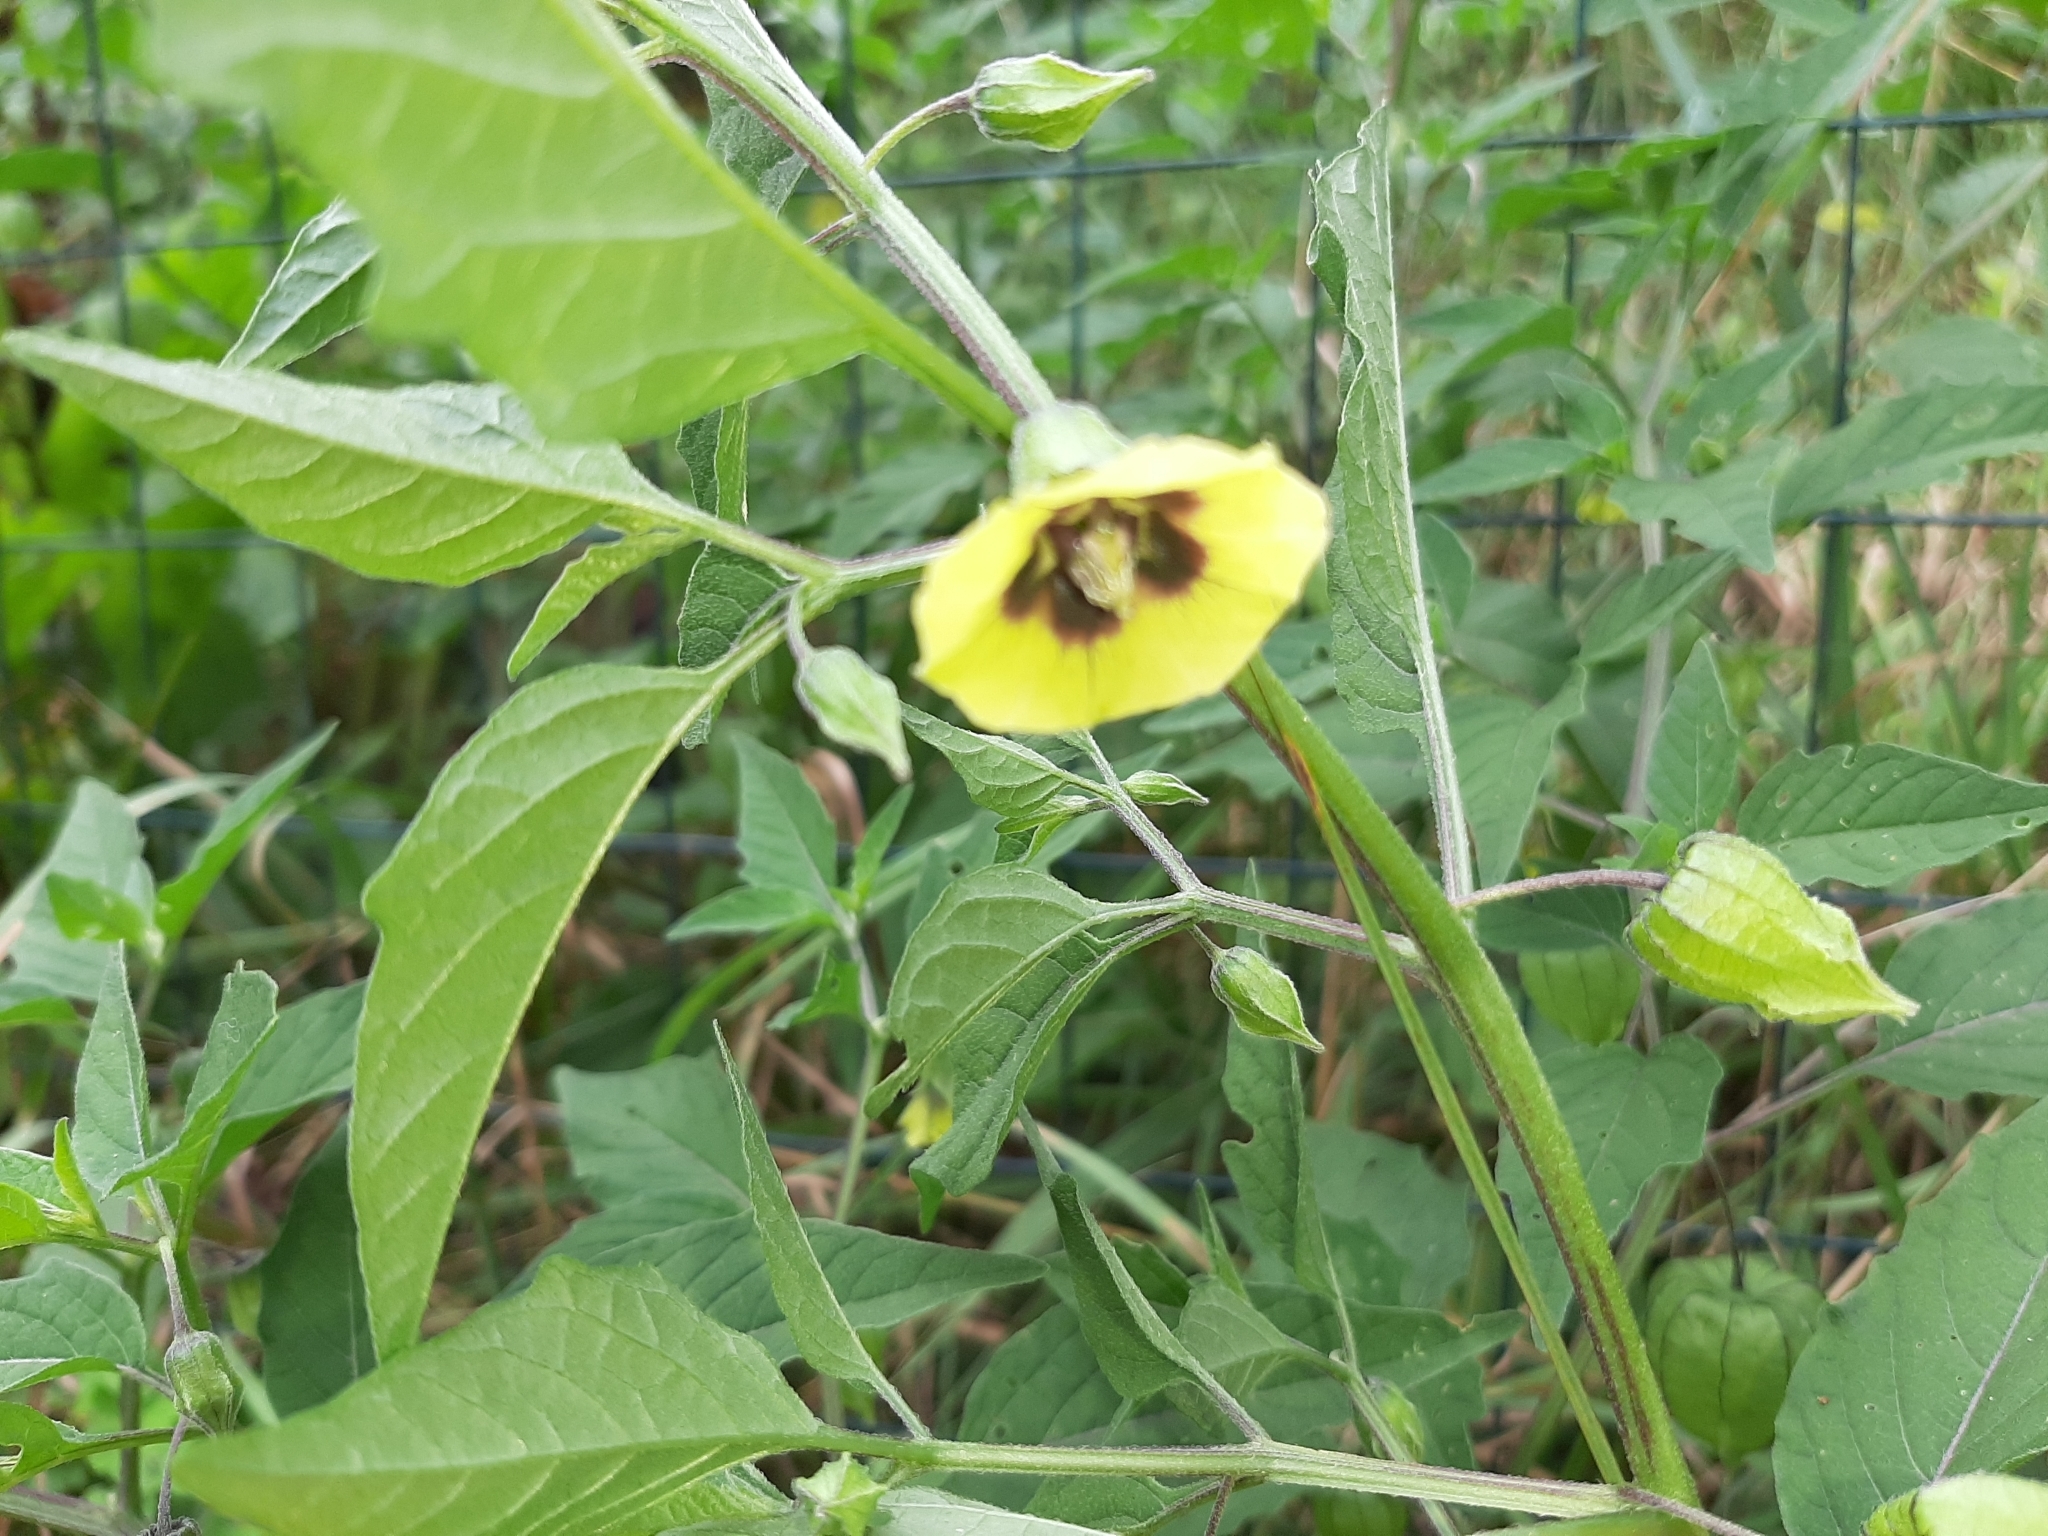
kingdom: Plantae
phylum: Tracheophyta
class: Magnoliopsida
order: Solanales
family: Solanaceae
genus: Physalis
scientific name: Physalis longifolia
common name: Common ground-cherry
